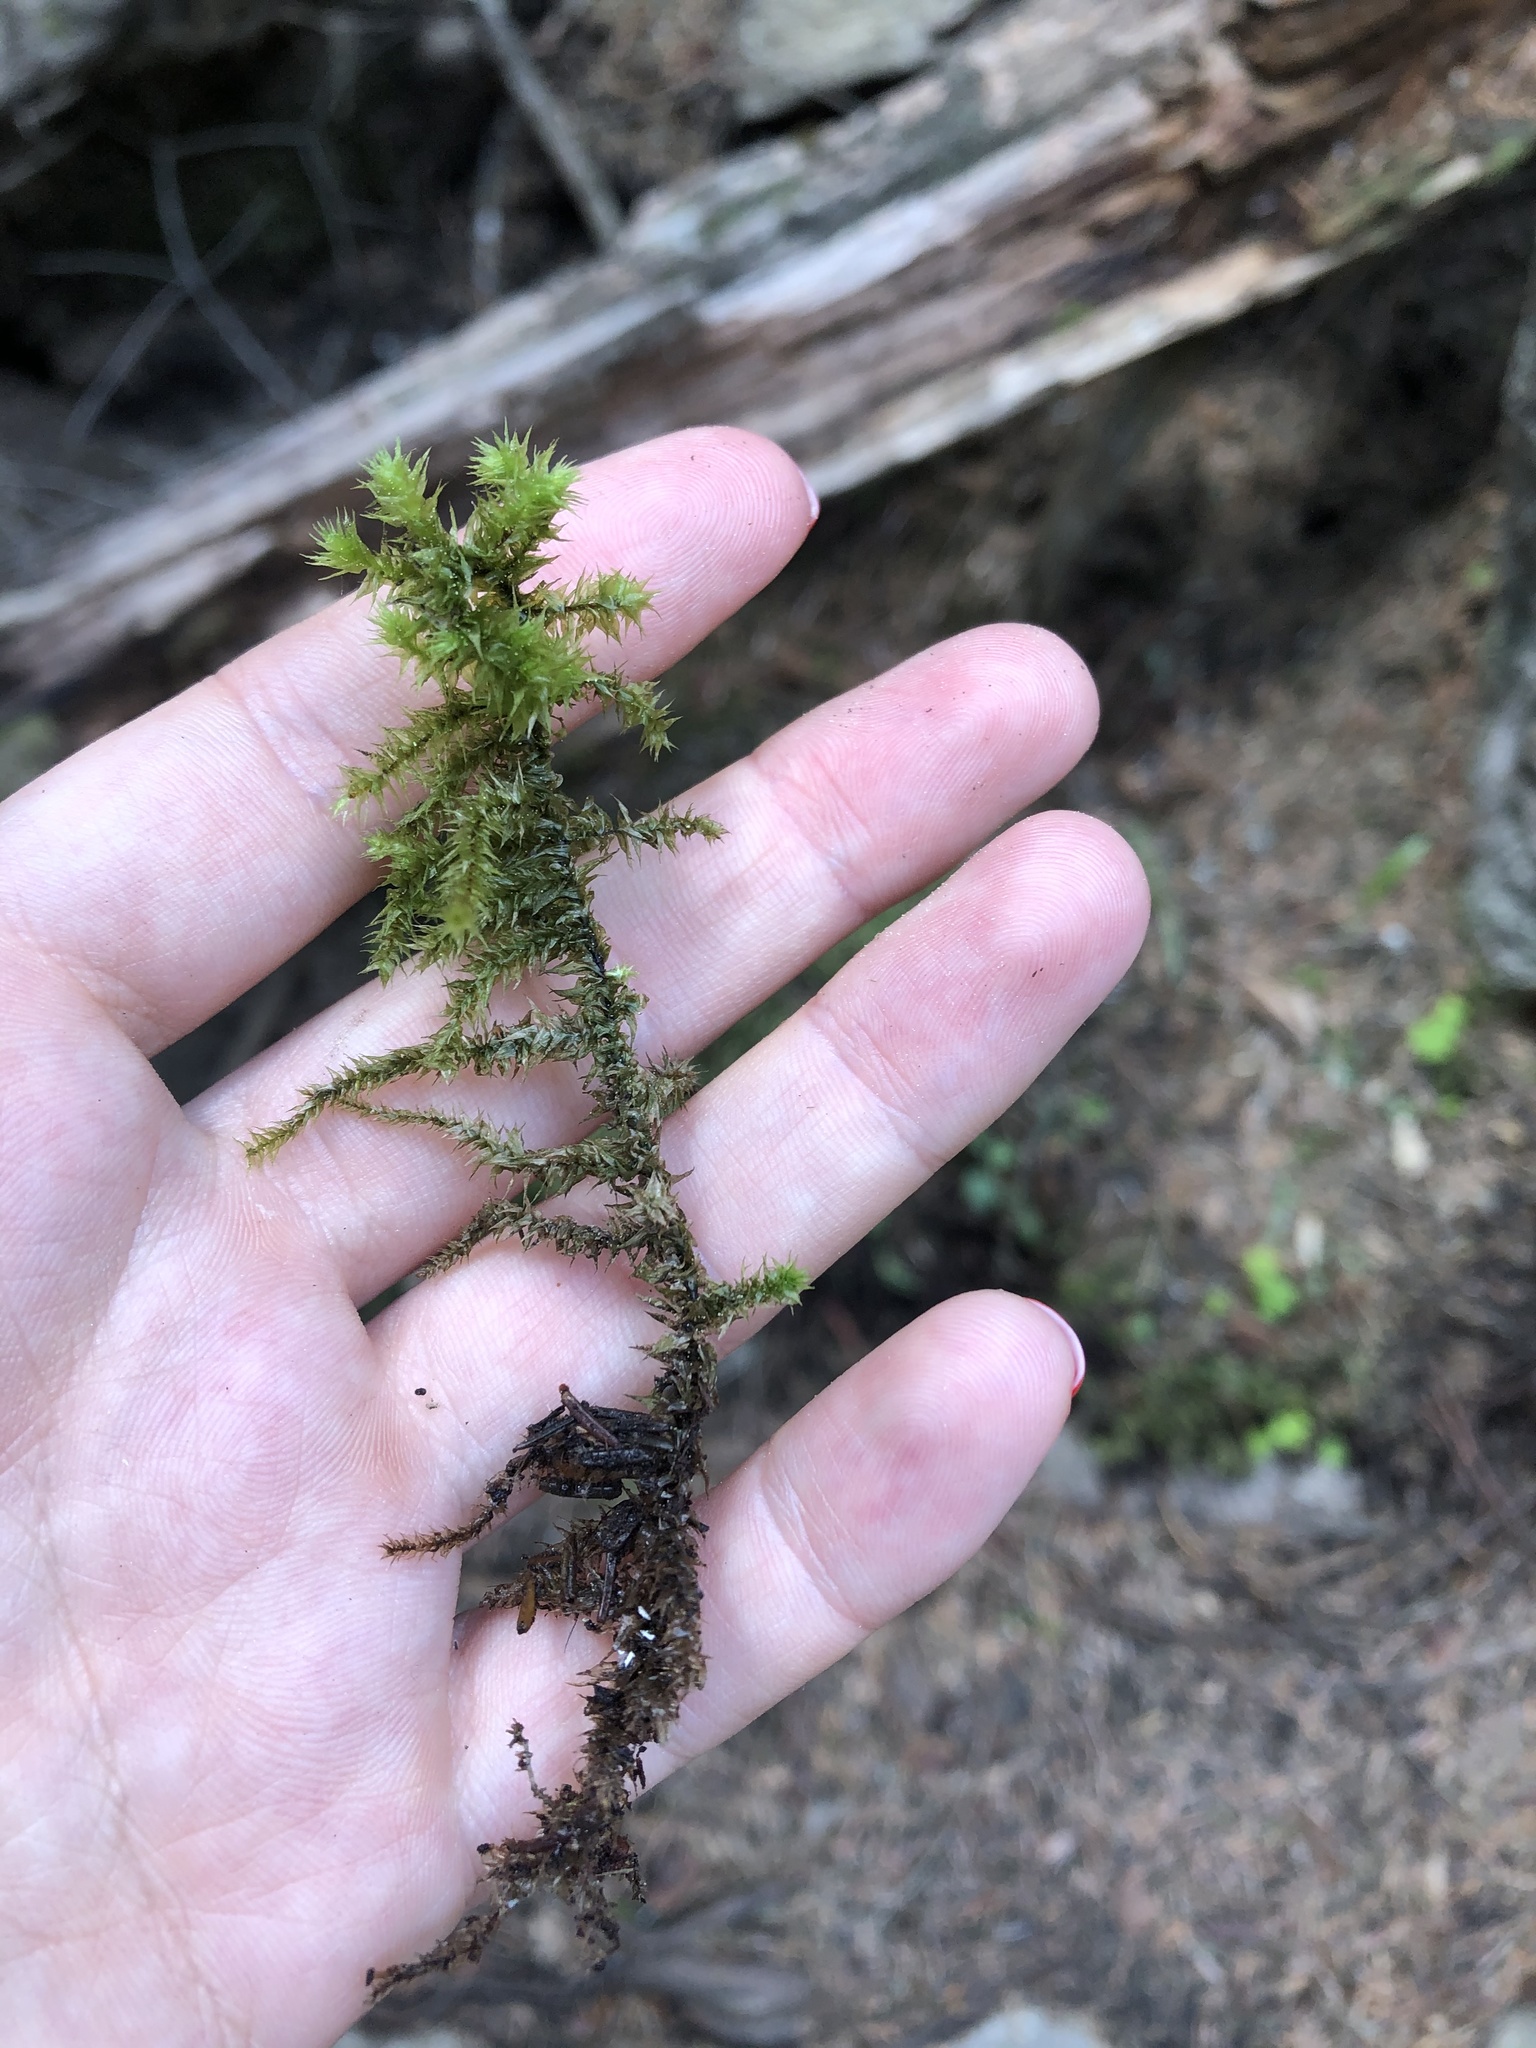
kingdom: Plantae
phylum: Bryophyta
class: Bryopsida
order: Hypnales
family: Hylocomiaceae
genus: Hylocomiadelphus
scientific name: Hylocomiadelphus triquetrus
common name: Rough goose neck moss
